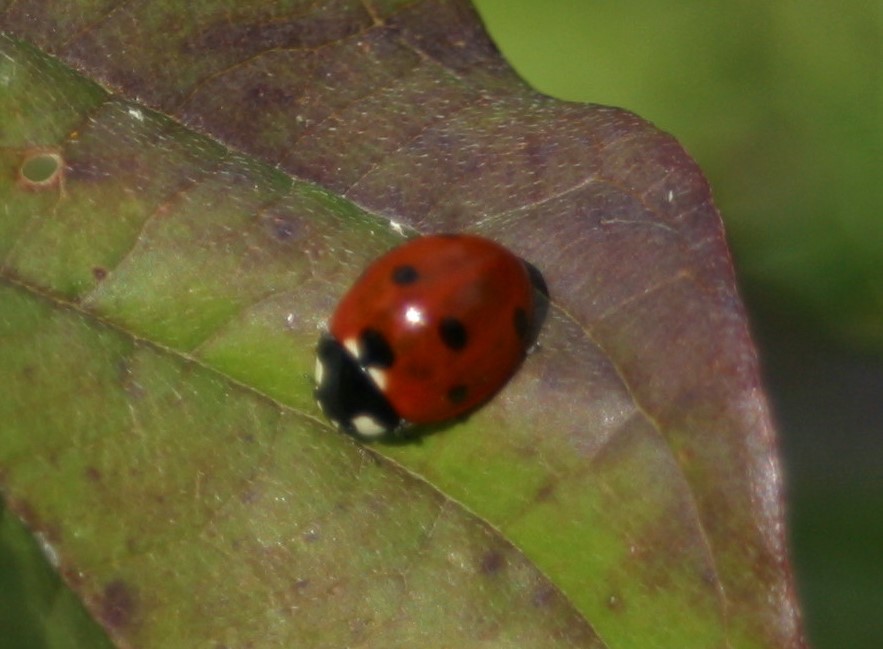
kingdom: Animalia
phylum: Arthropoda
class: Insecta
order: Coleoptera
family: Coccinellidae
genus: Coccinella
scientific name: Coccinella septempunctata
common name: Sevenspotted lady beetle
